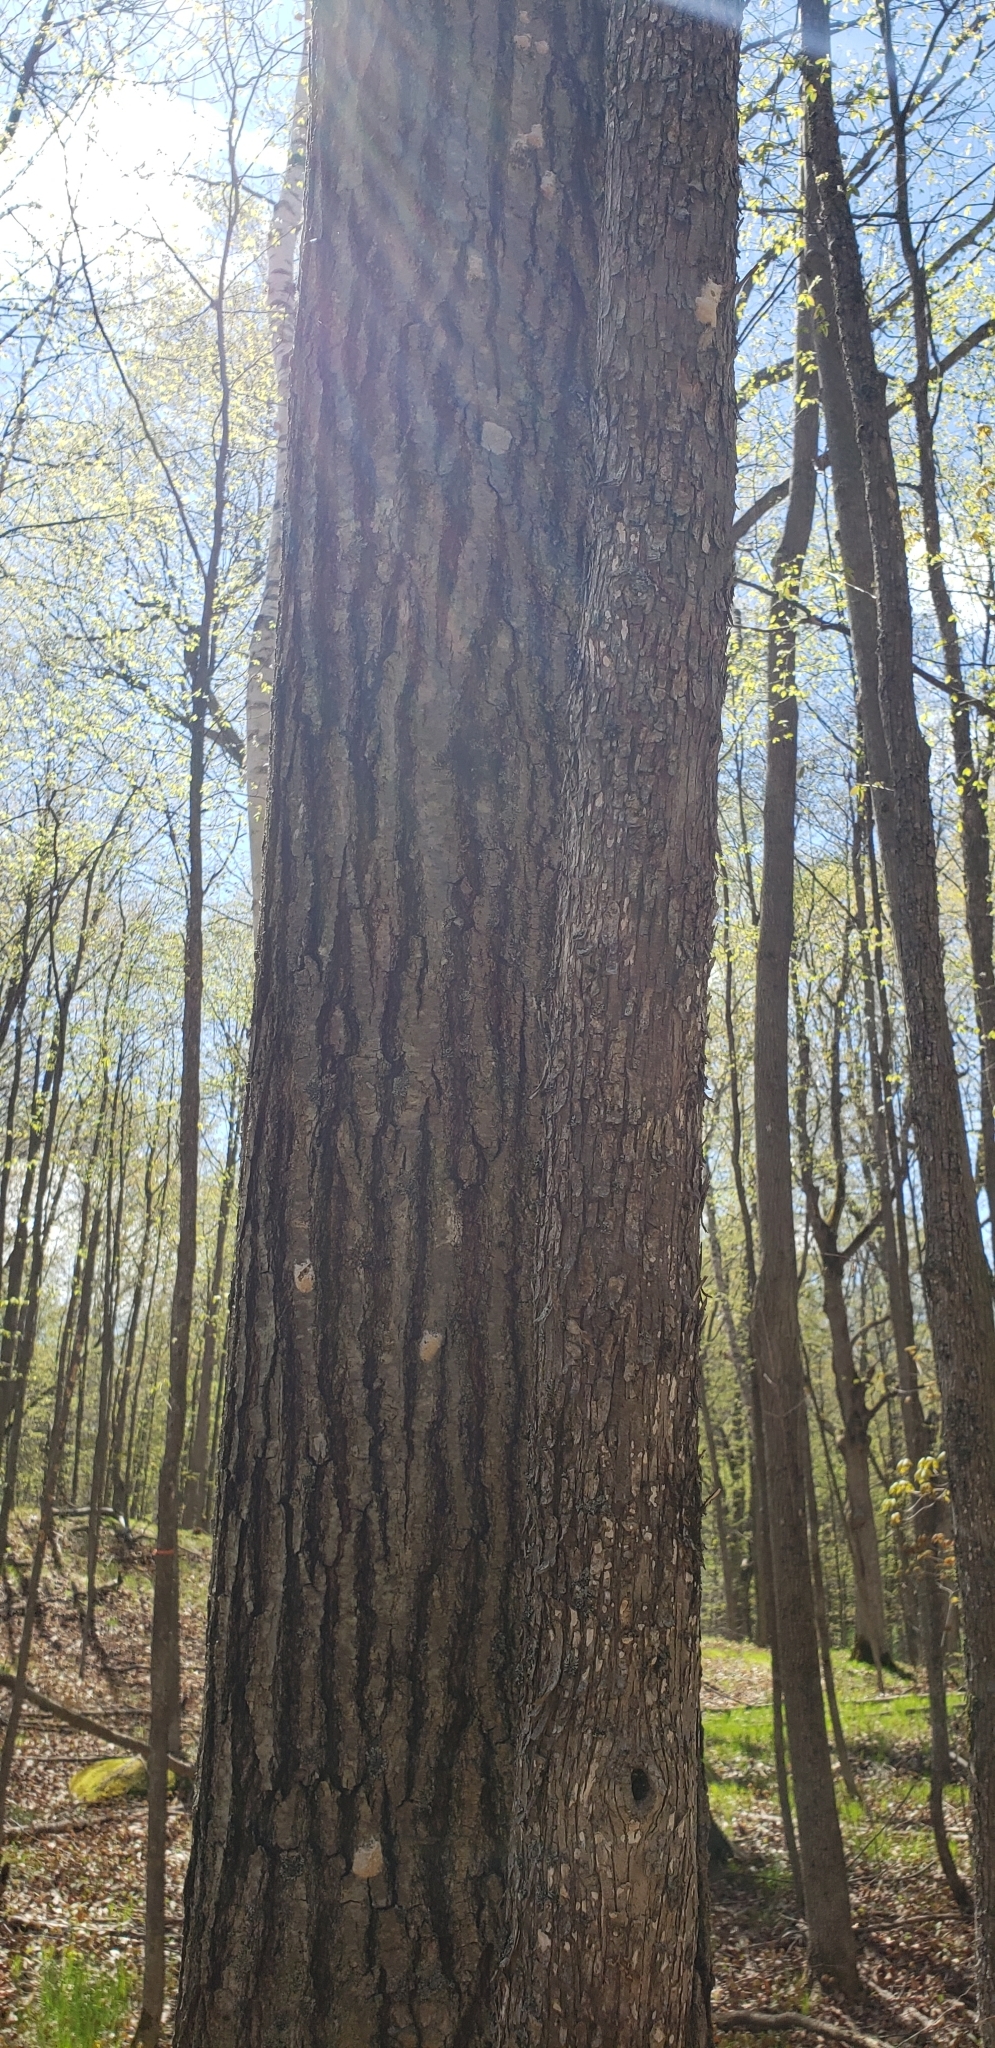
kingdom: Animalia
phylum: Arthropoda
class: Insecta
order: Lepidoptera
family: Erebidae
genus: Lymantria
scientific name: Lymantria dispar
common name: Gypsy moth
